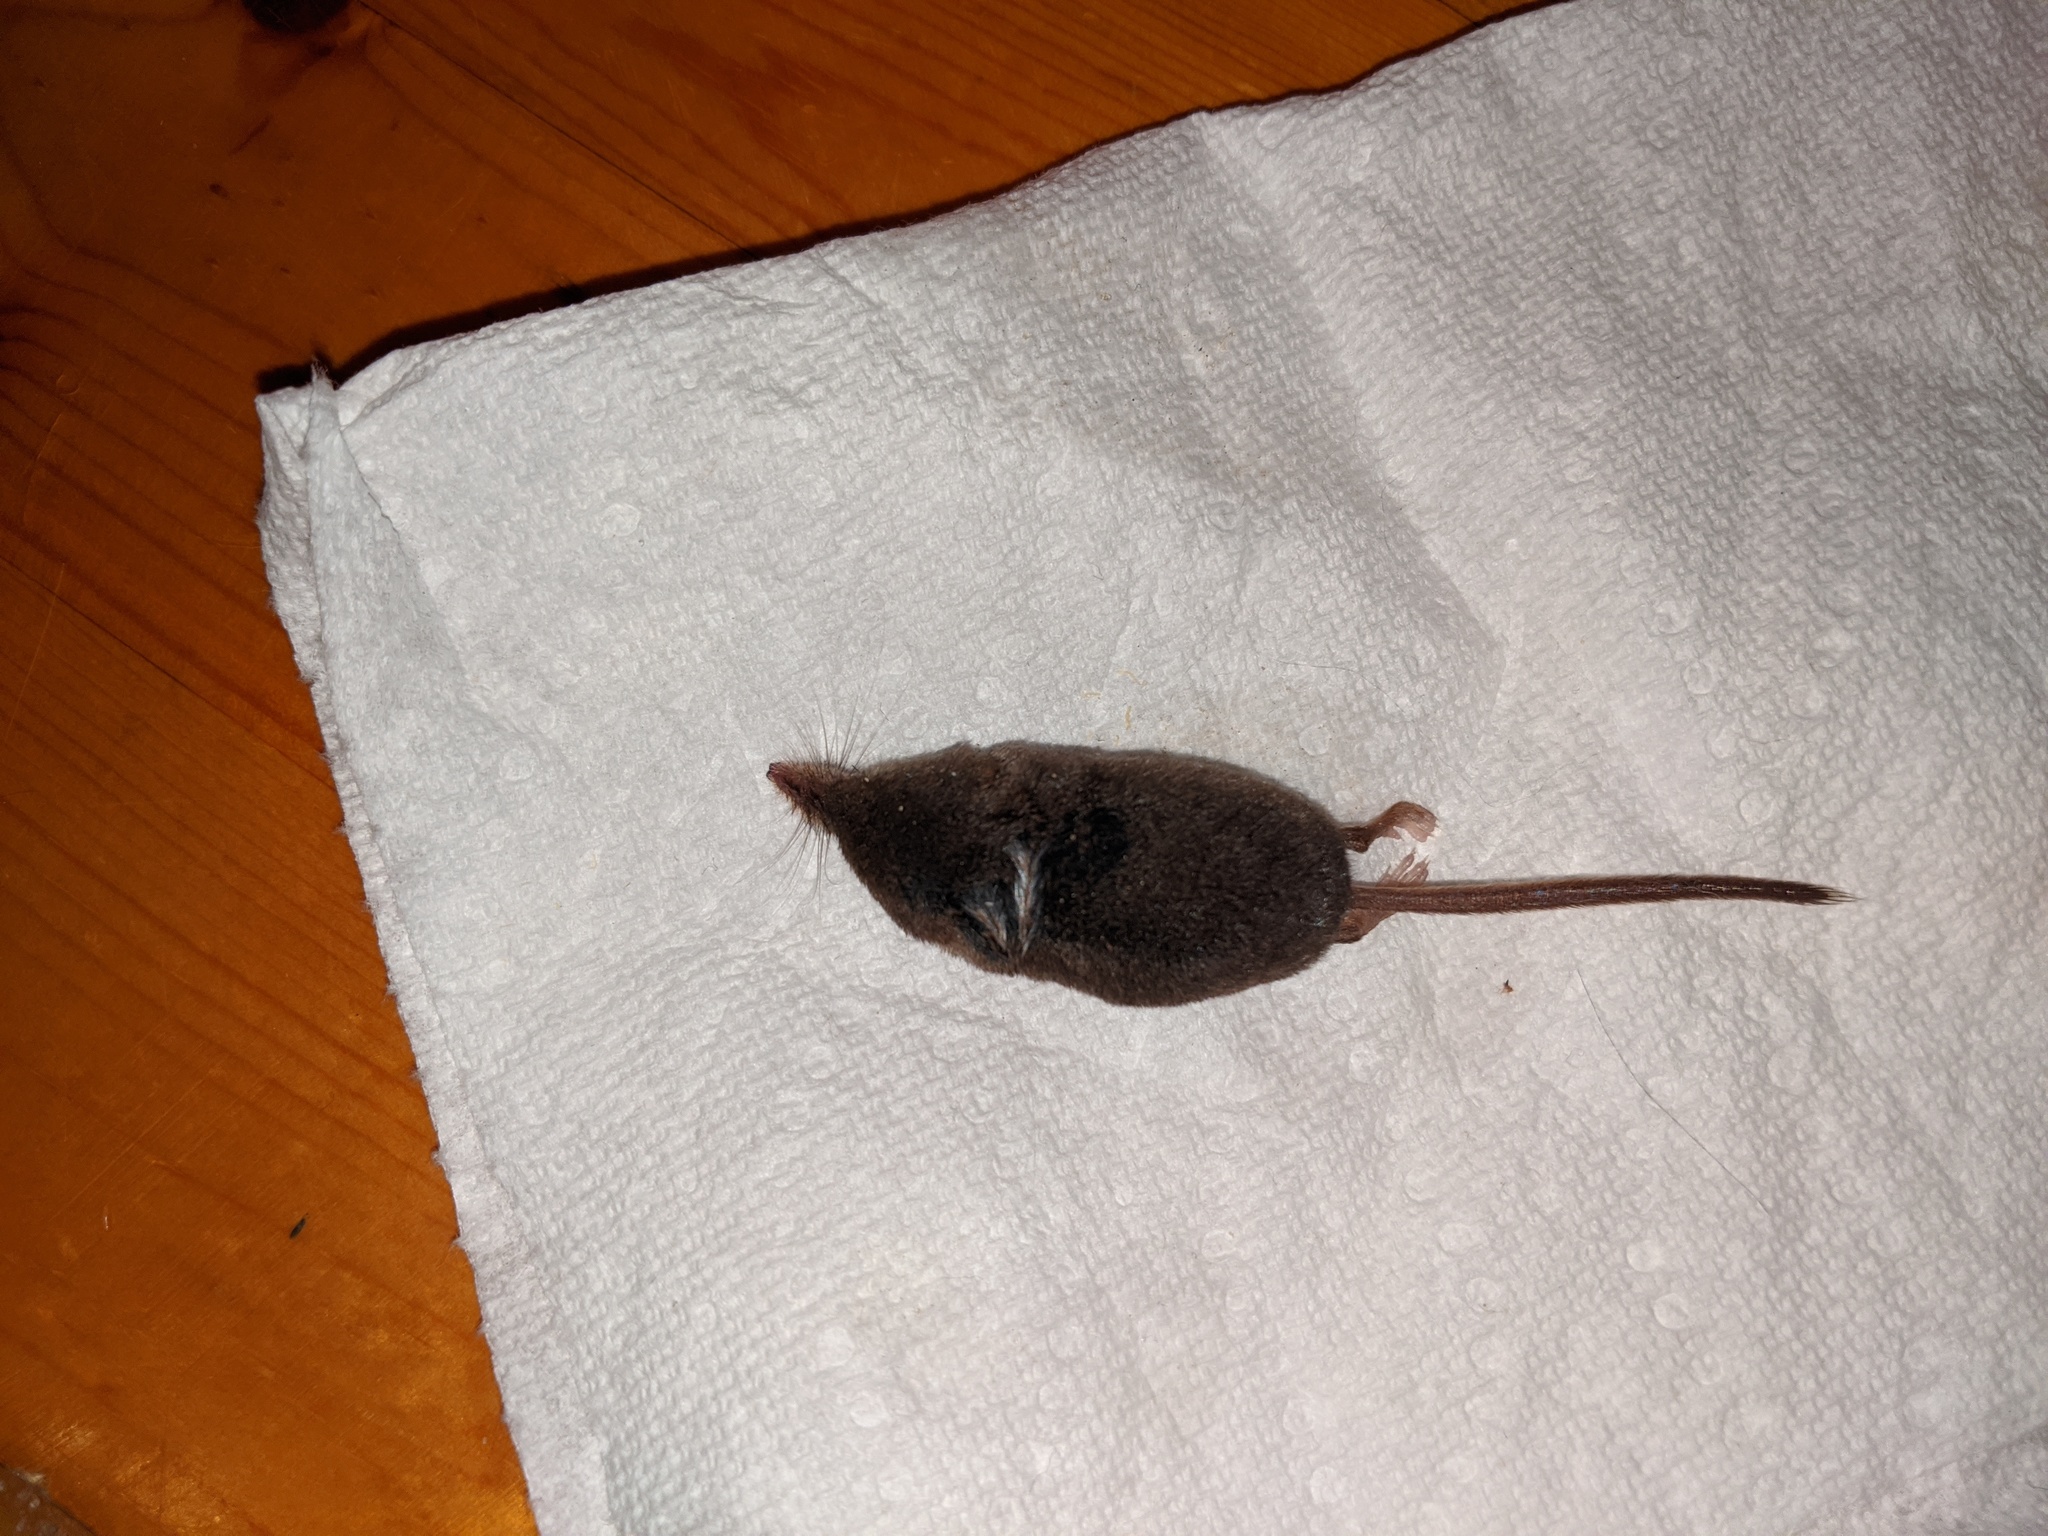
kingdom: Animalia
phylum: Chordata
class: Mammalia
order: Soricomorpha
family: Soricidae
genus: Sorex
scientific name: Sorex cinereus
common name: Cinereus shrew
